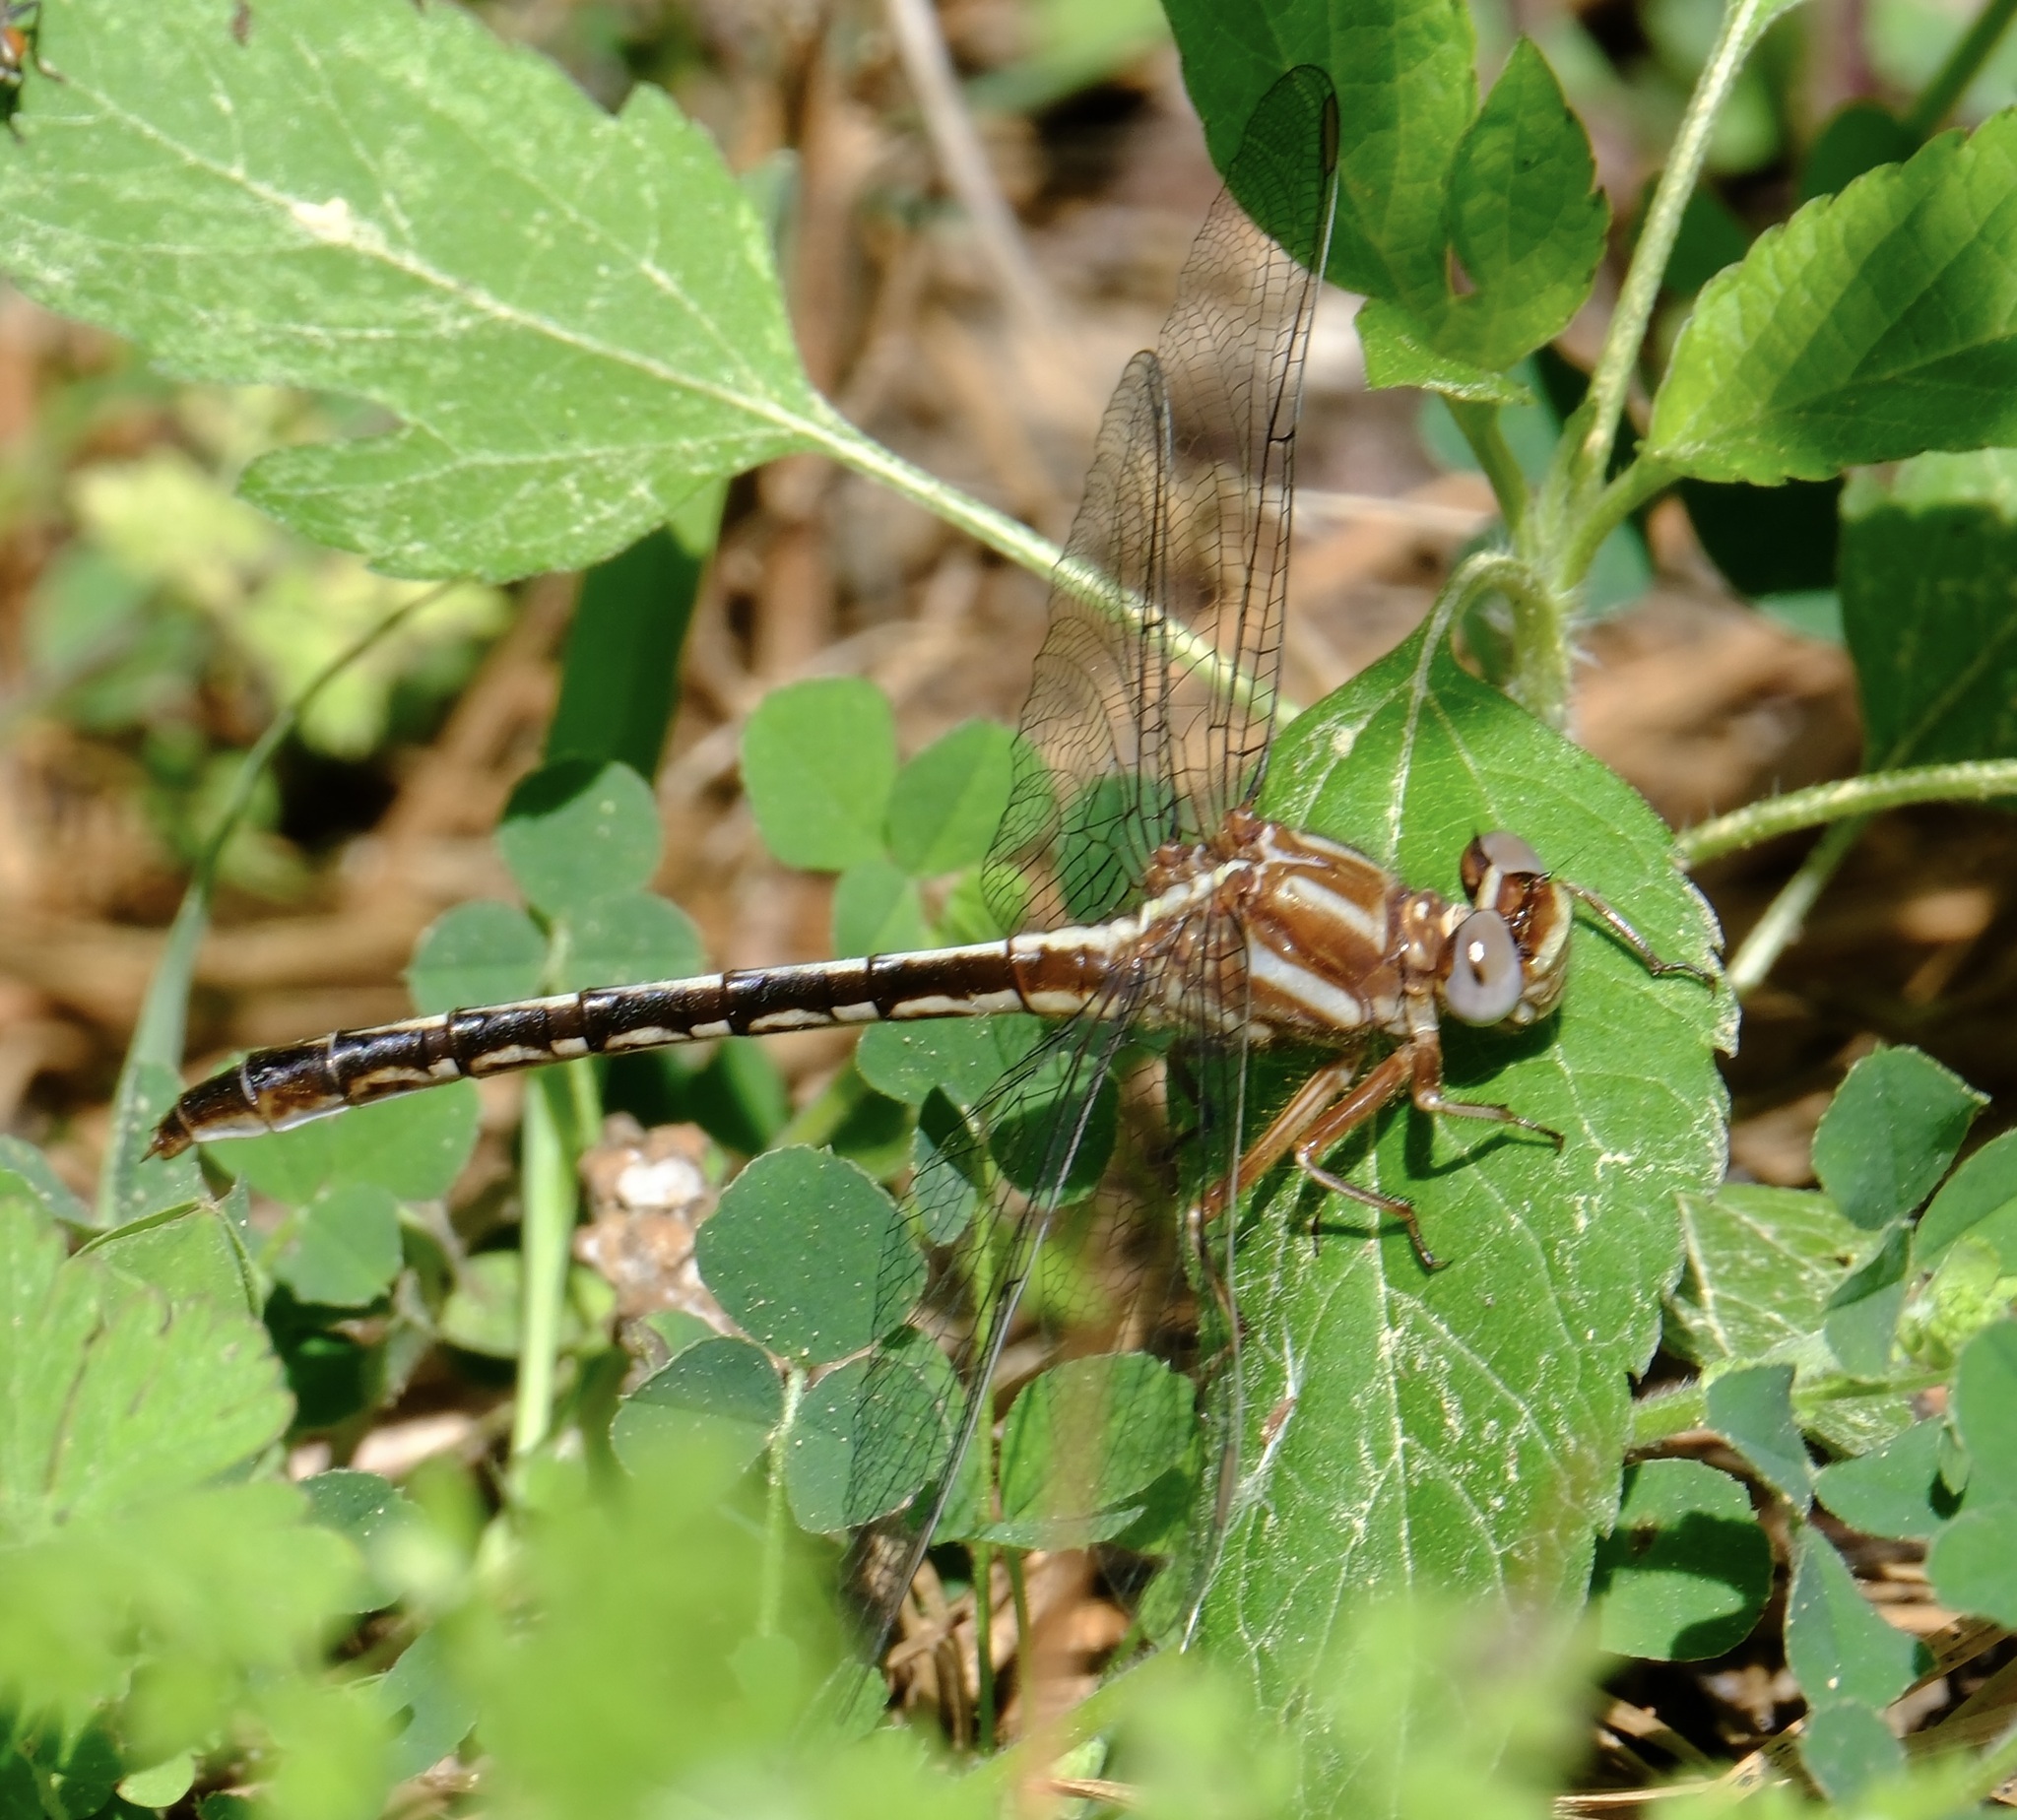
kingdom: Animalia
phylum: Arthropoda
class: Insecta
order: Odonata
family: Gomphidae
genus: Phanogomphus
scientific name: Phanogomphus lividus
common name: Ashy clubtail
